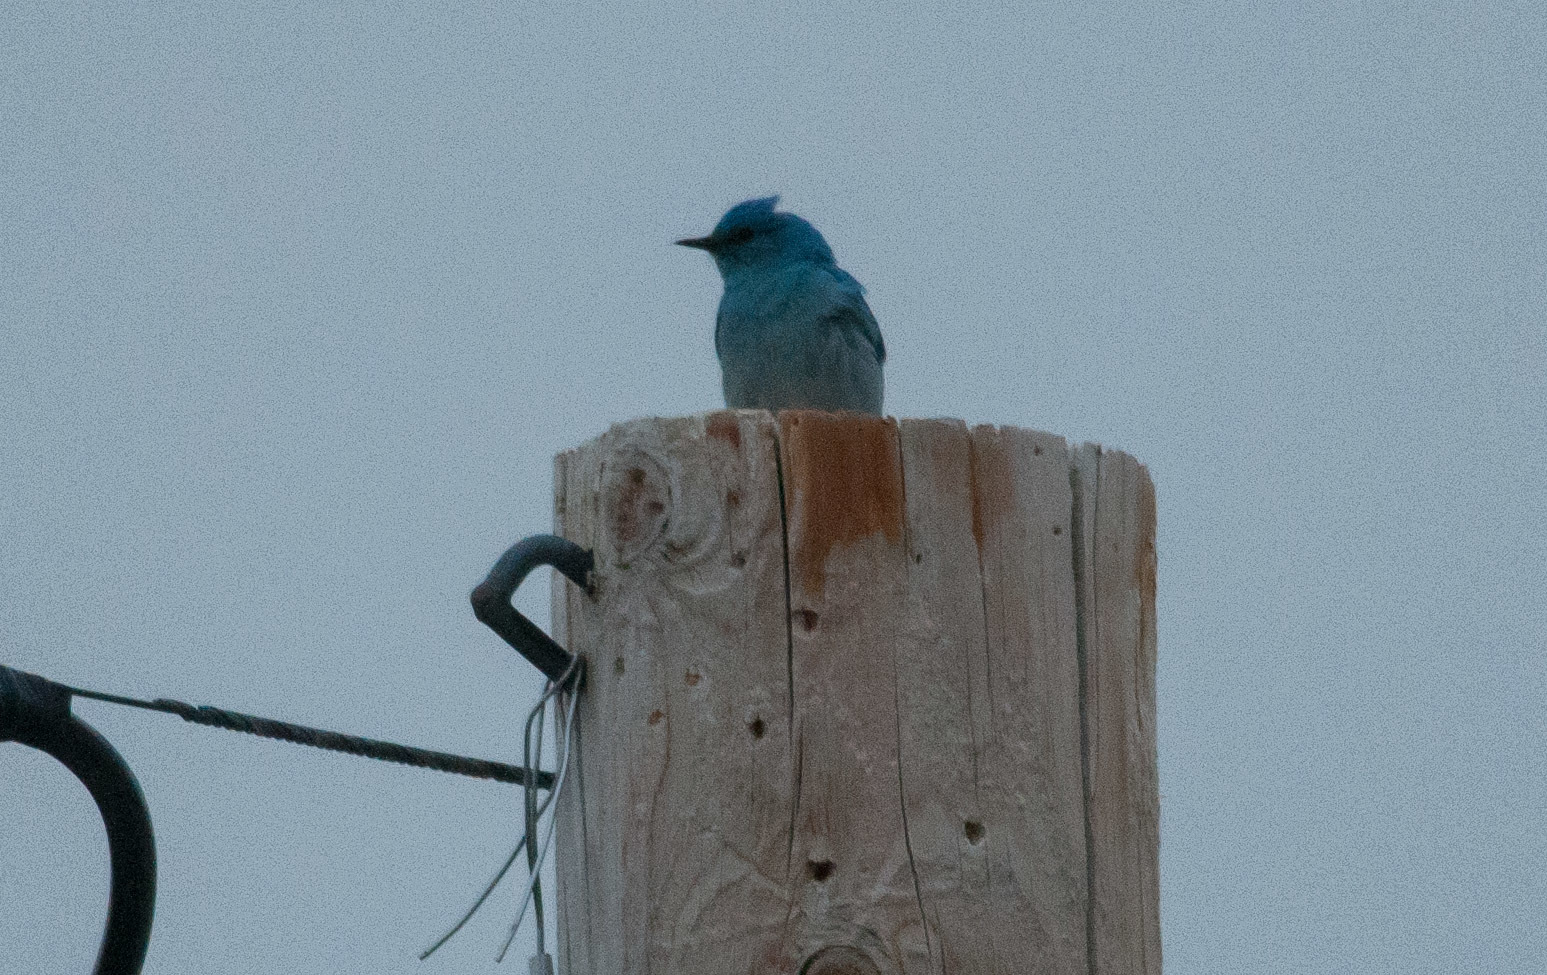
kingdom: Animalia
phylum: Chordata
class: Aves
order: Passeriformes
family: Turdidae
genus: Sialia
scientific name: Sialia currucoides
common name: Mountain bluebird
